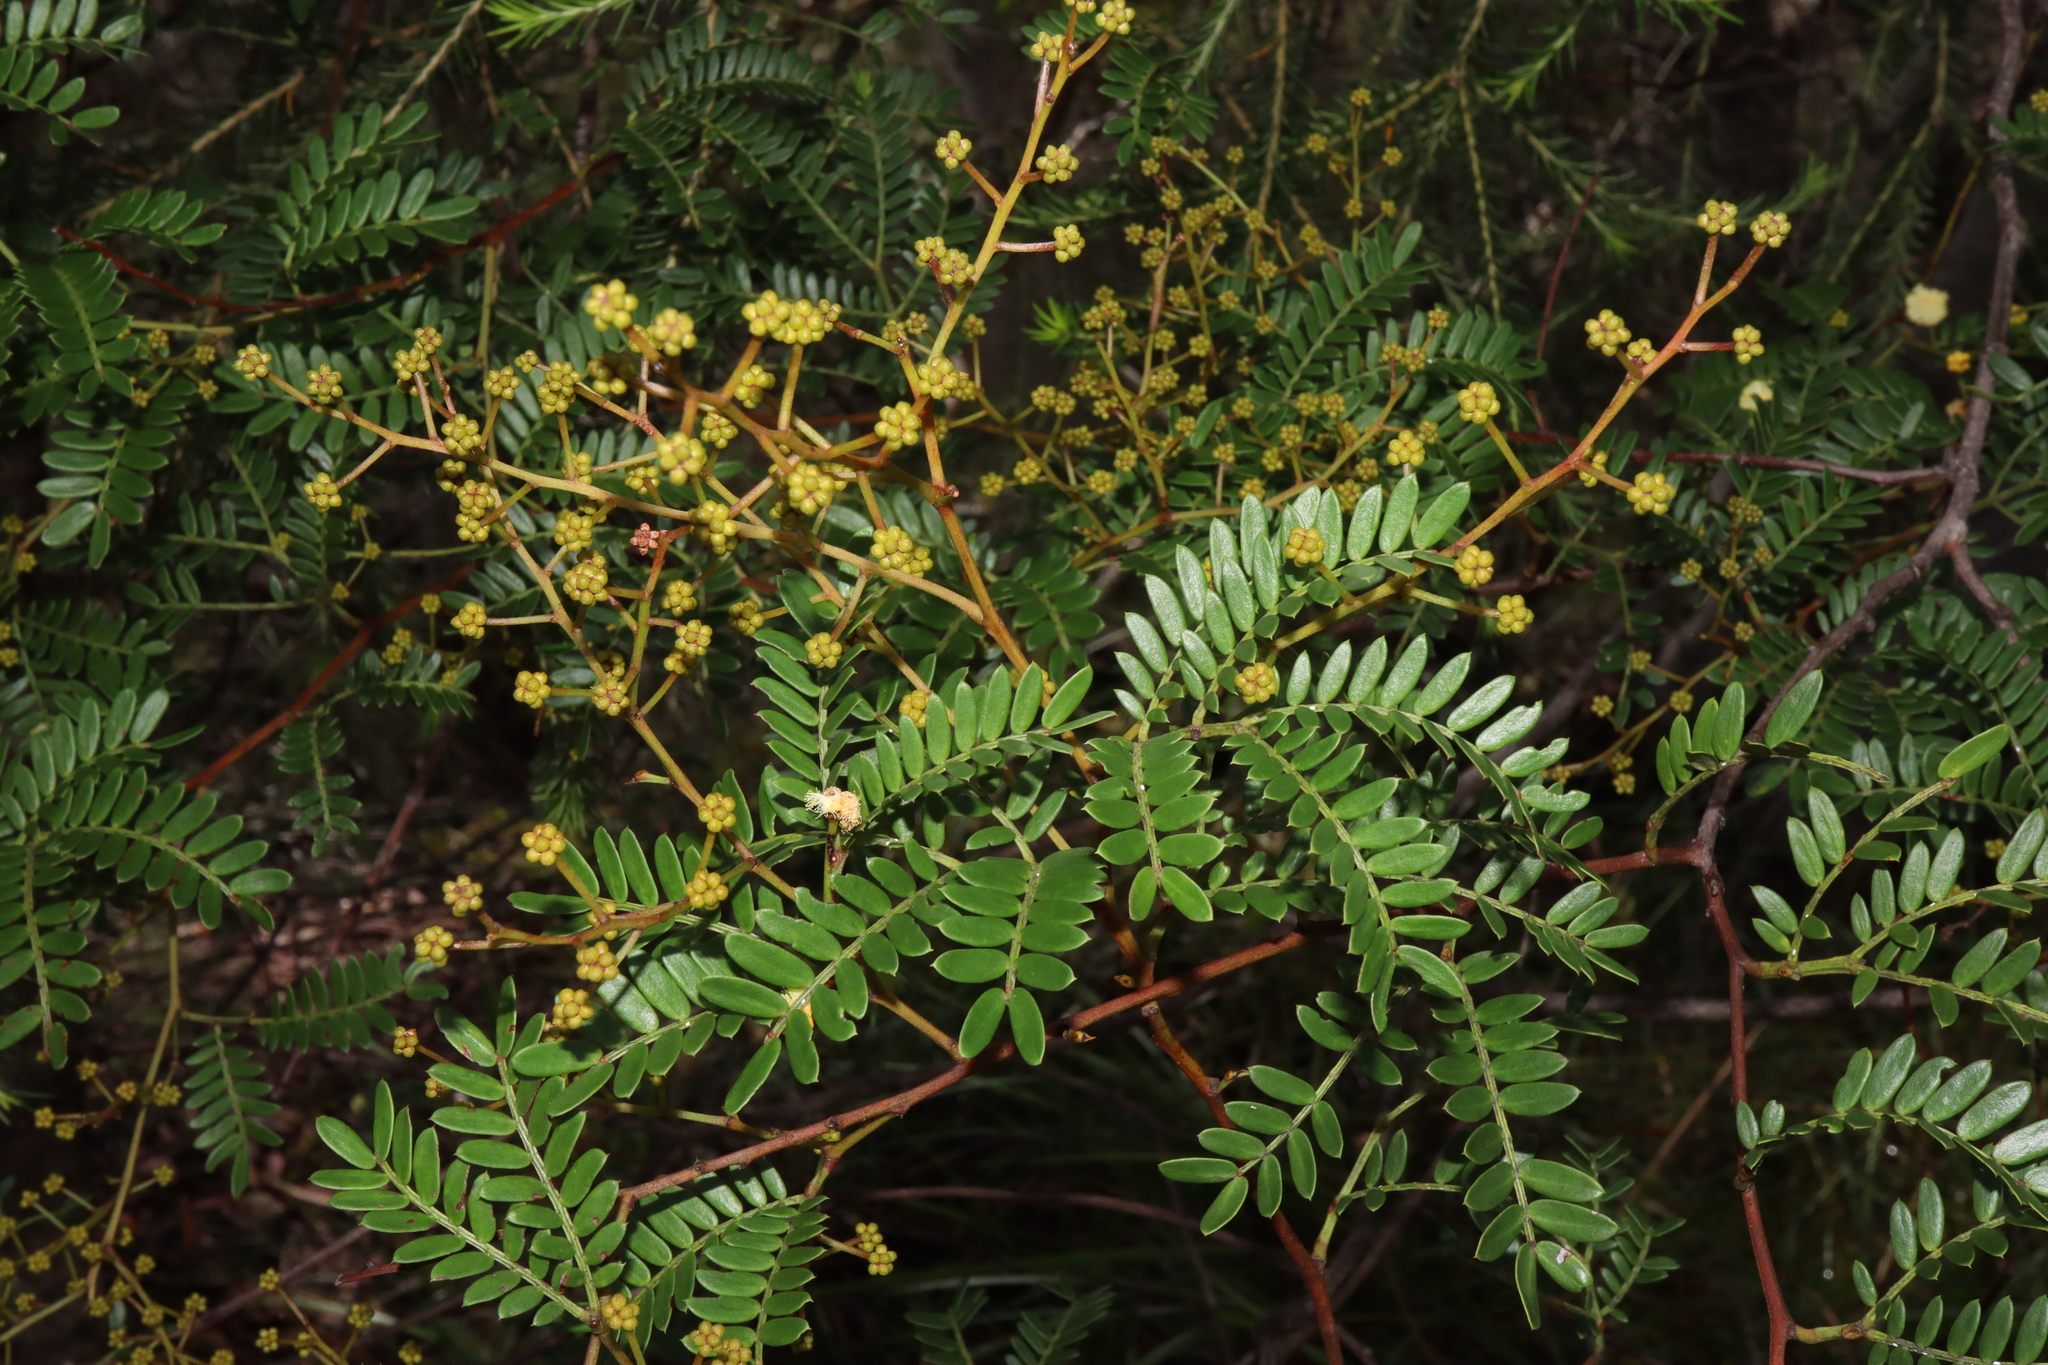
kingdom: Plantae
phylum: Tracheophyta
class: Magnoliopsida
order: Fabales
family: Fabaceae
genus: Acacia
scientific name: Acacia terminalis
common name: Cedar wattle
